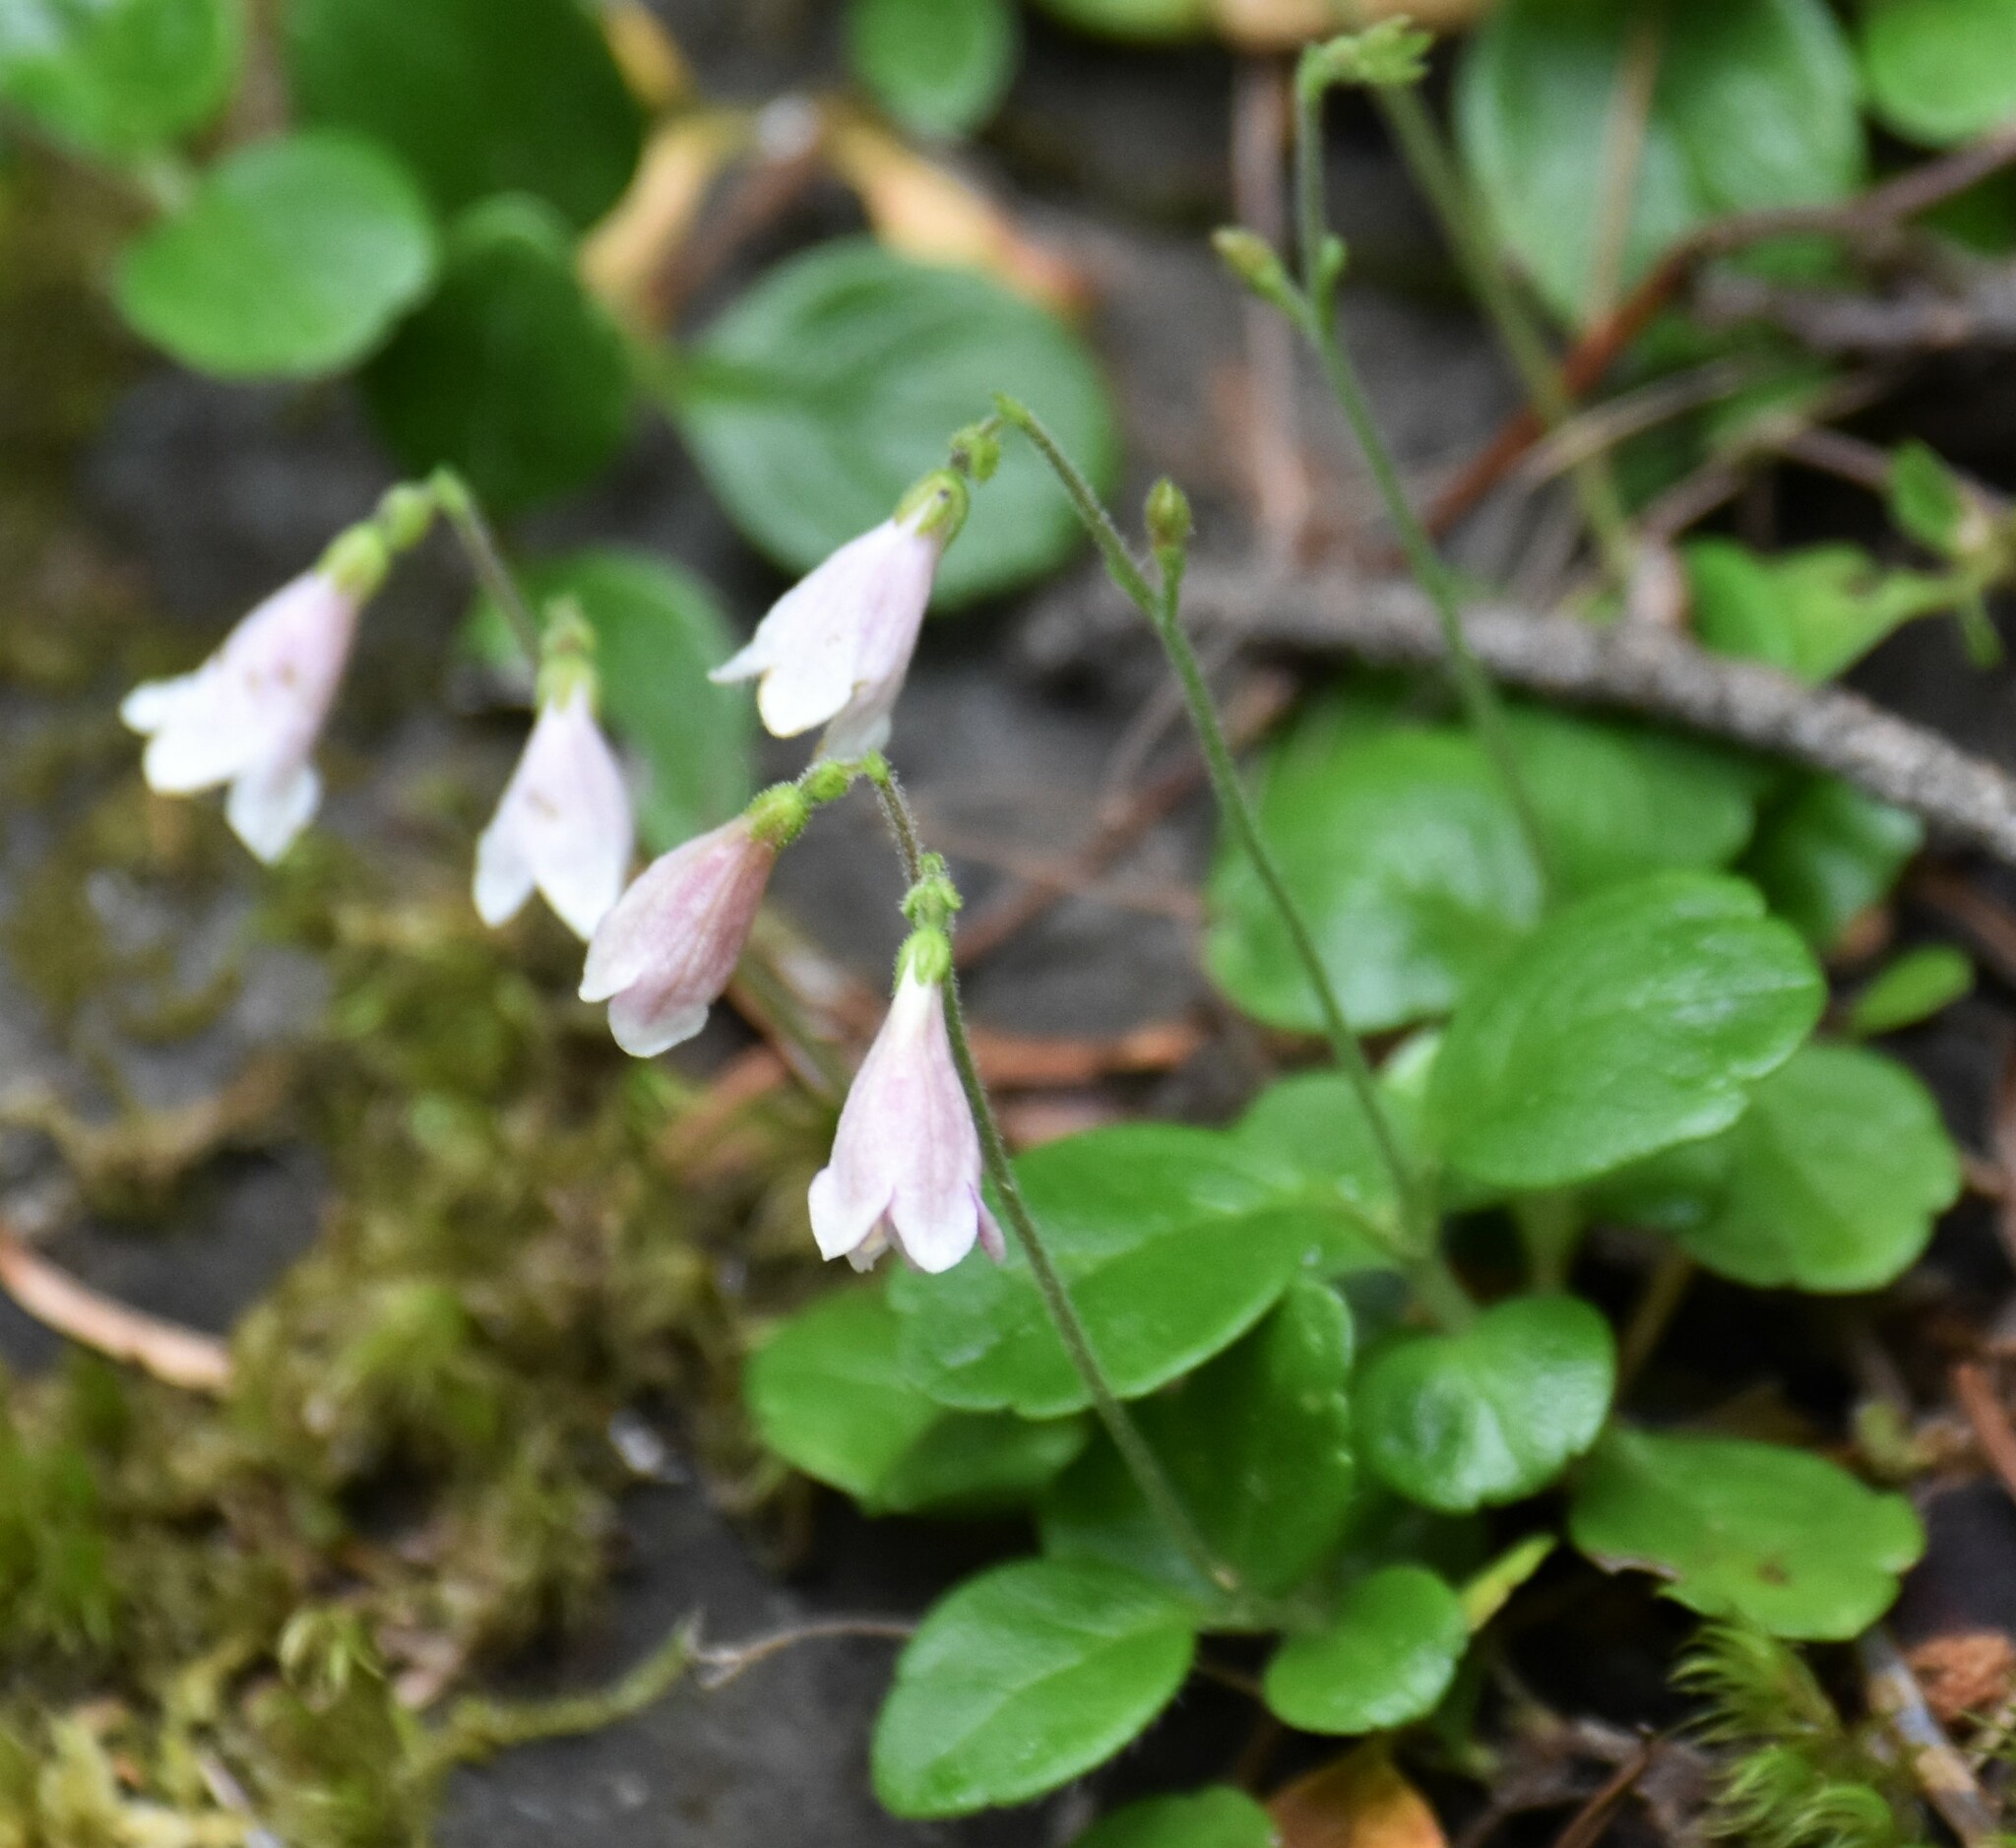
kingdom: Plantae
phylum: Tracheophyta
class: Magnoliopsida
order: Dipsacales
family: Caprifoliaceae
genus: Linnaea
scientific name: Linnaea borealis
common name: Twinflower
